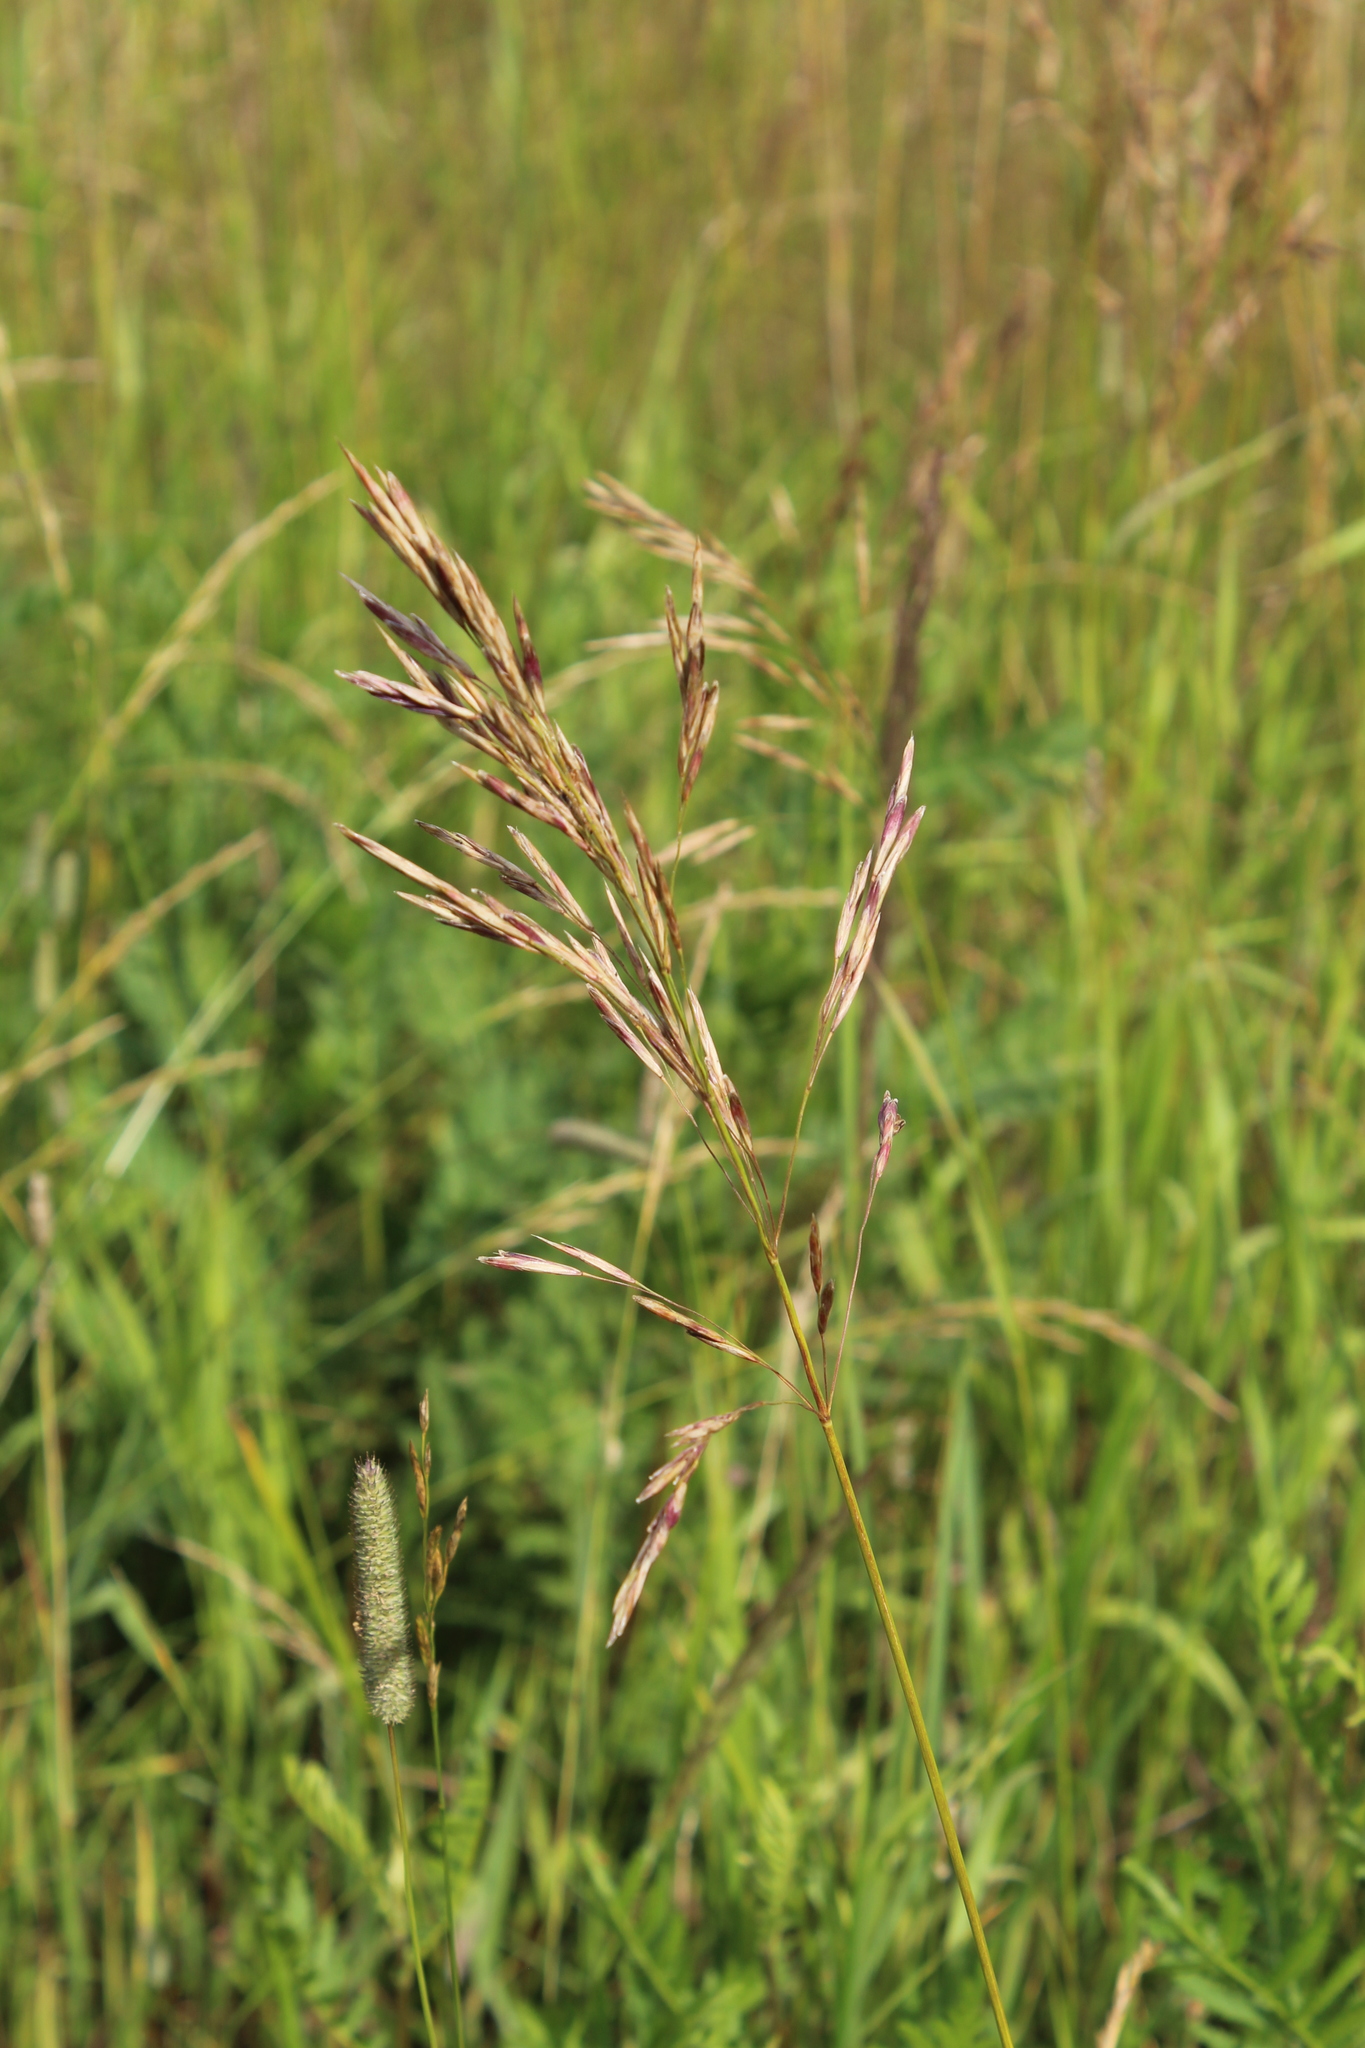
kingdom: Plantae
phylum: Tracheophyta
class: Liliopsida
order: Poales
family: Poaceae
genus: Bromus
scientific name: Bromus inermis
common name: Smooth brome
